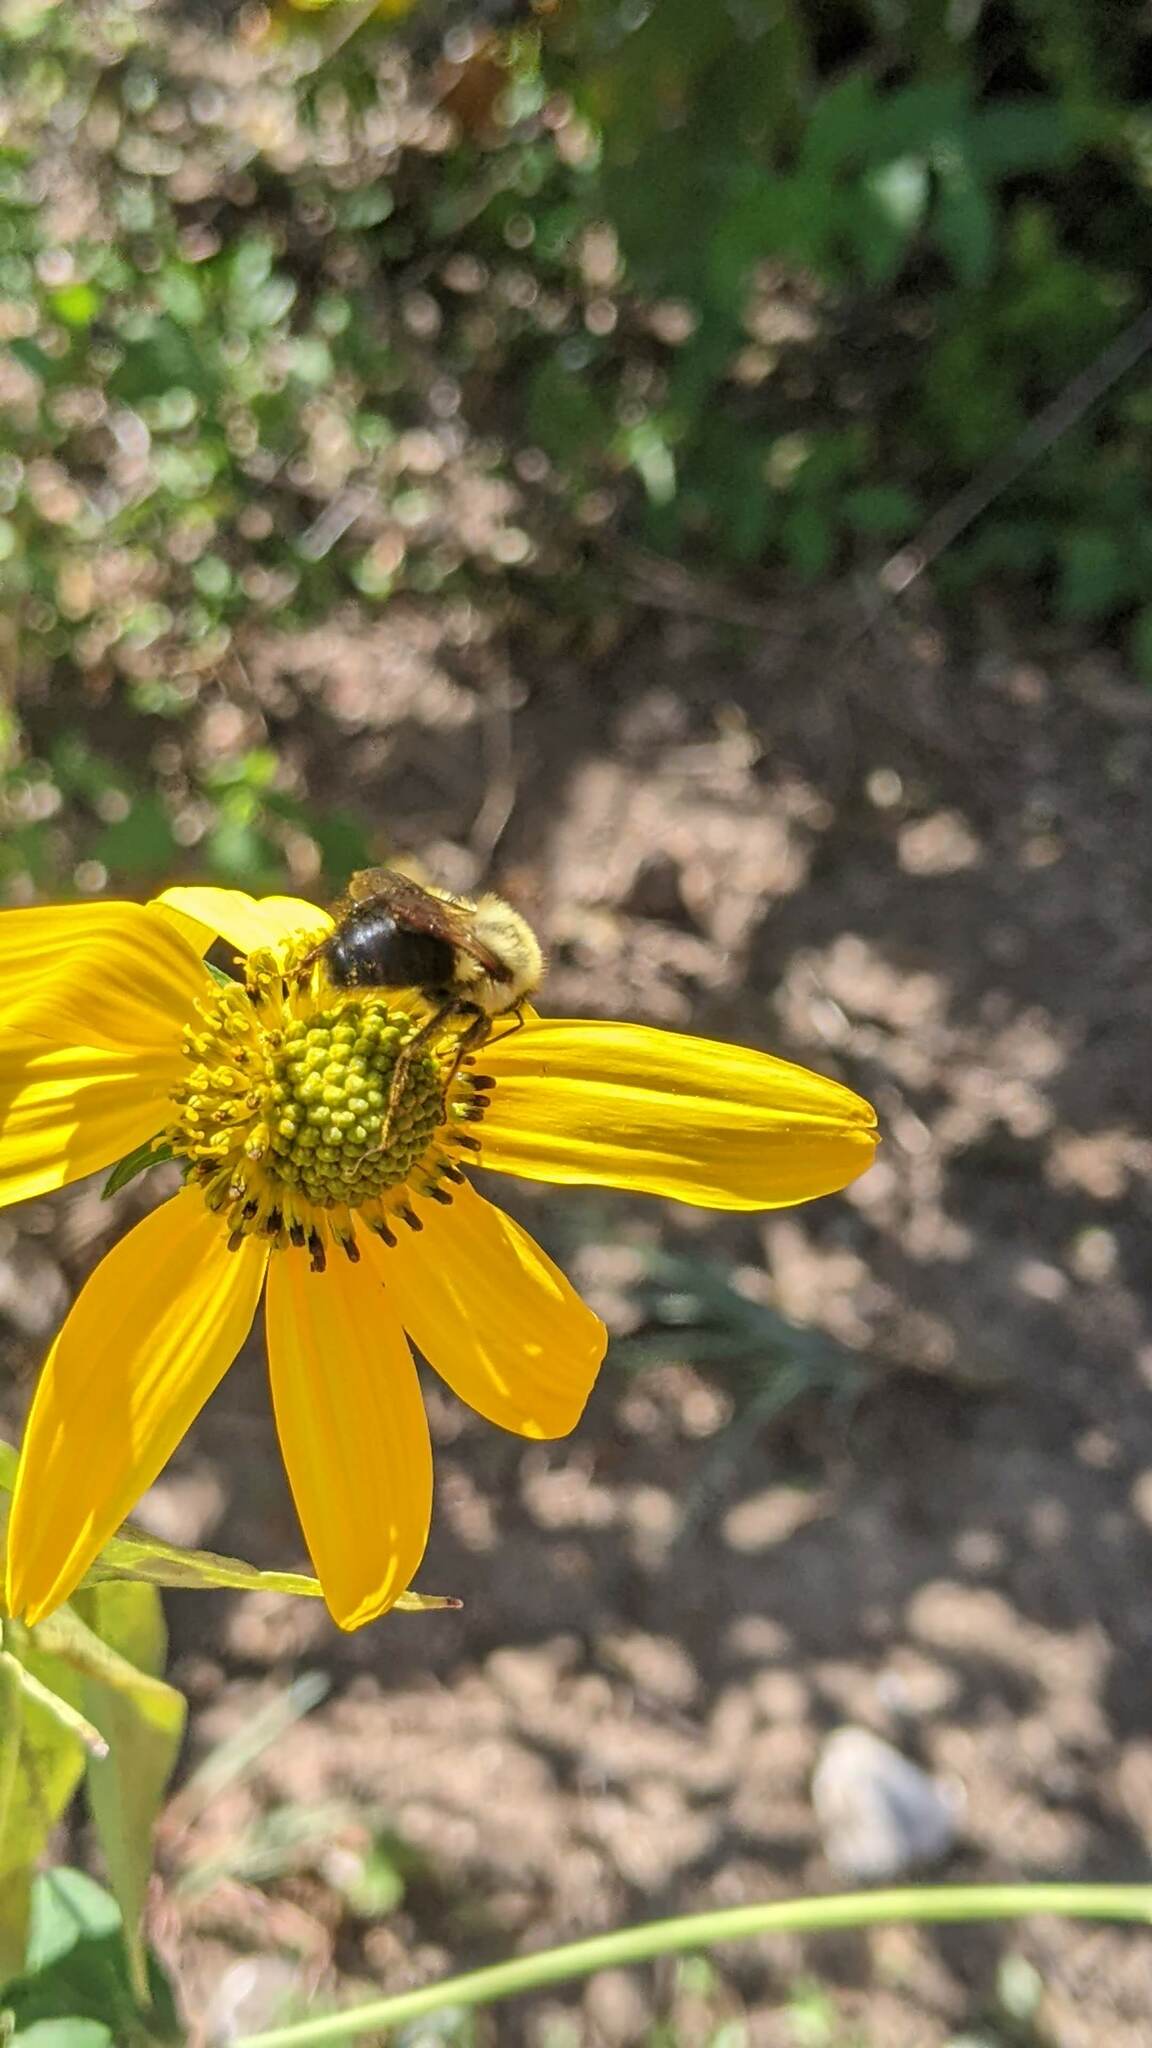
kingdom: Animalia
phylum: Arthropoda
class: Insecta
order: Hymenoptera
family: Apidae
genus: Bombus
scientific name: Bombus impatiens
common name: Common eastern bumble bee
